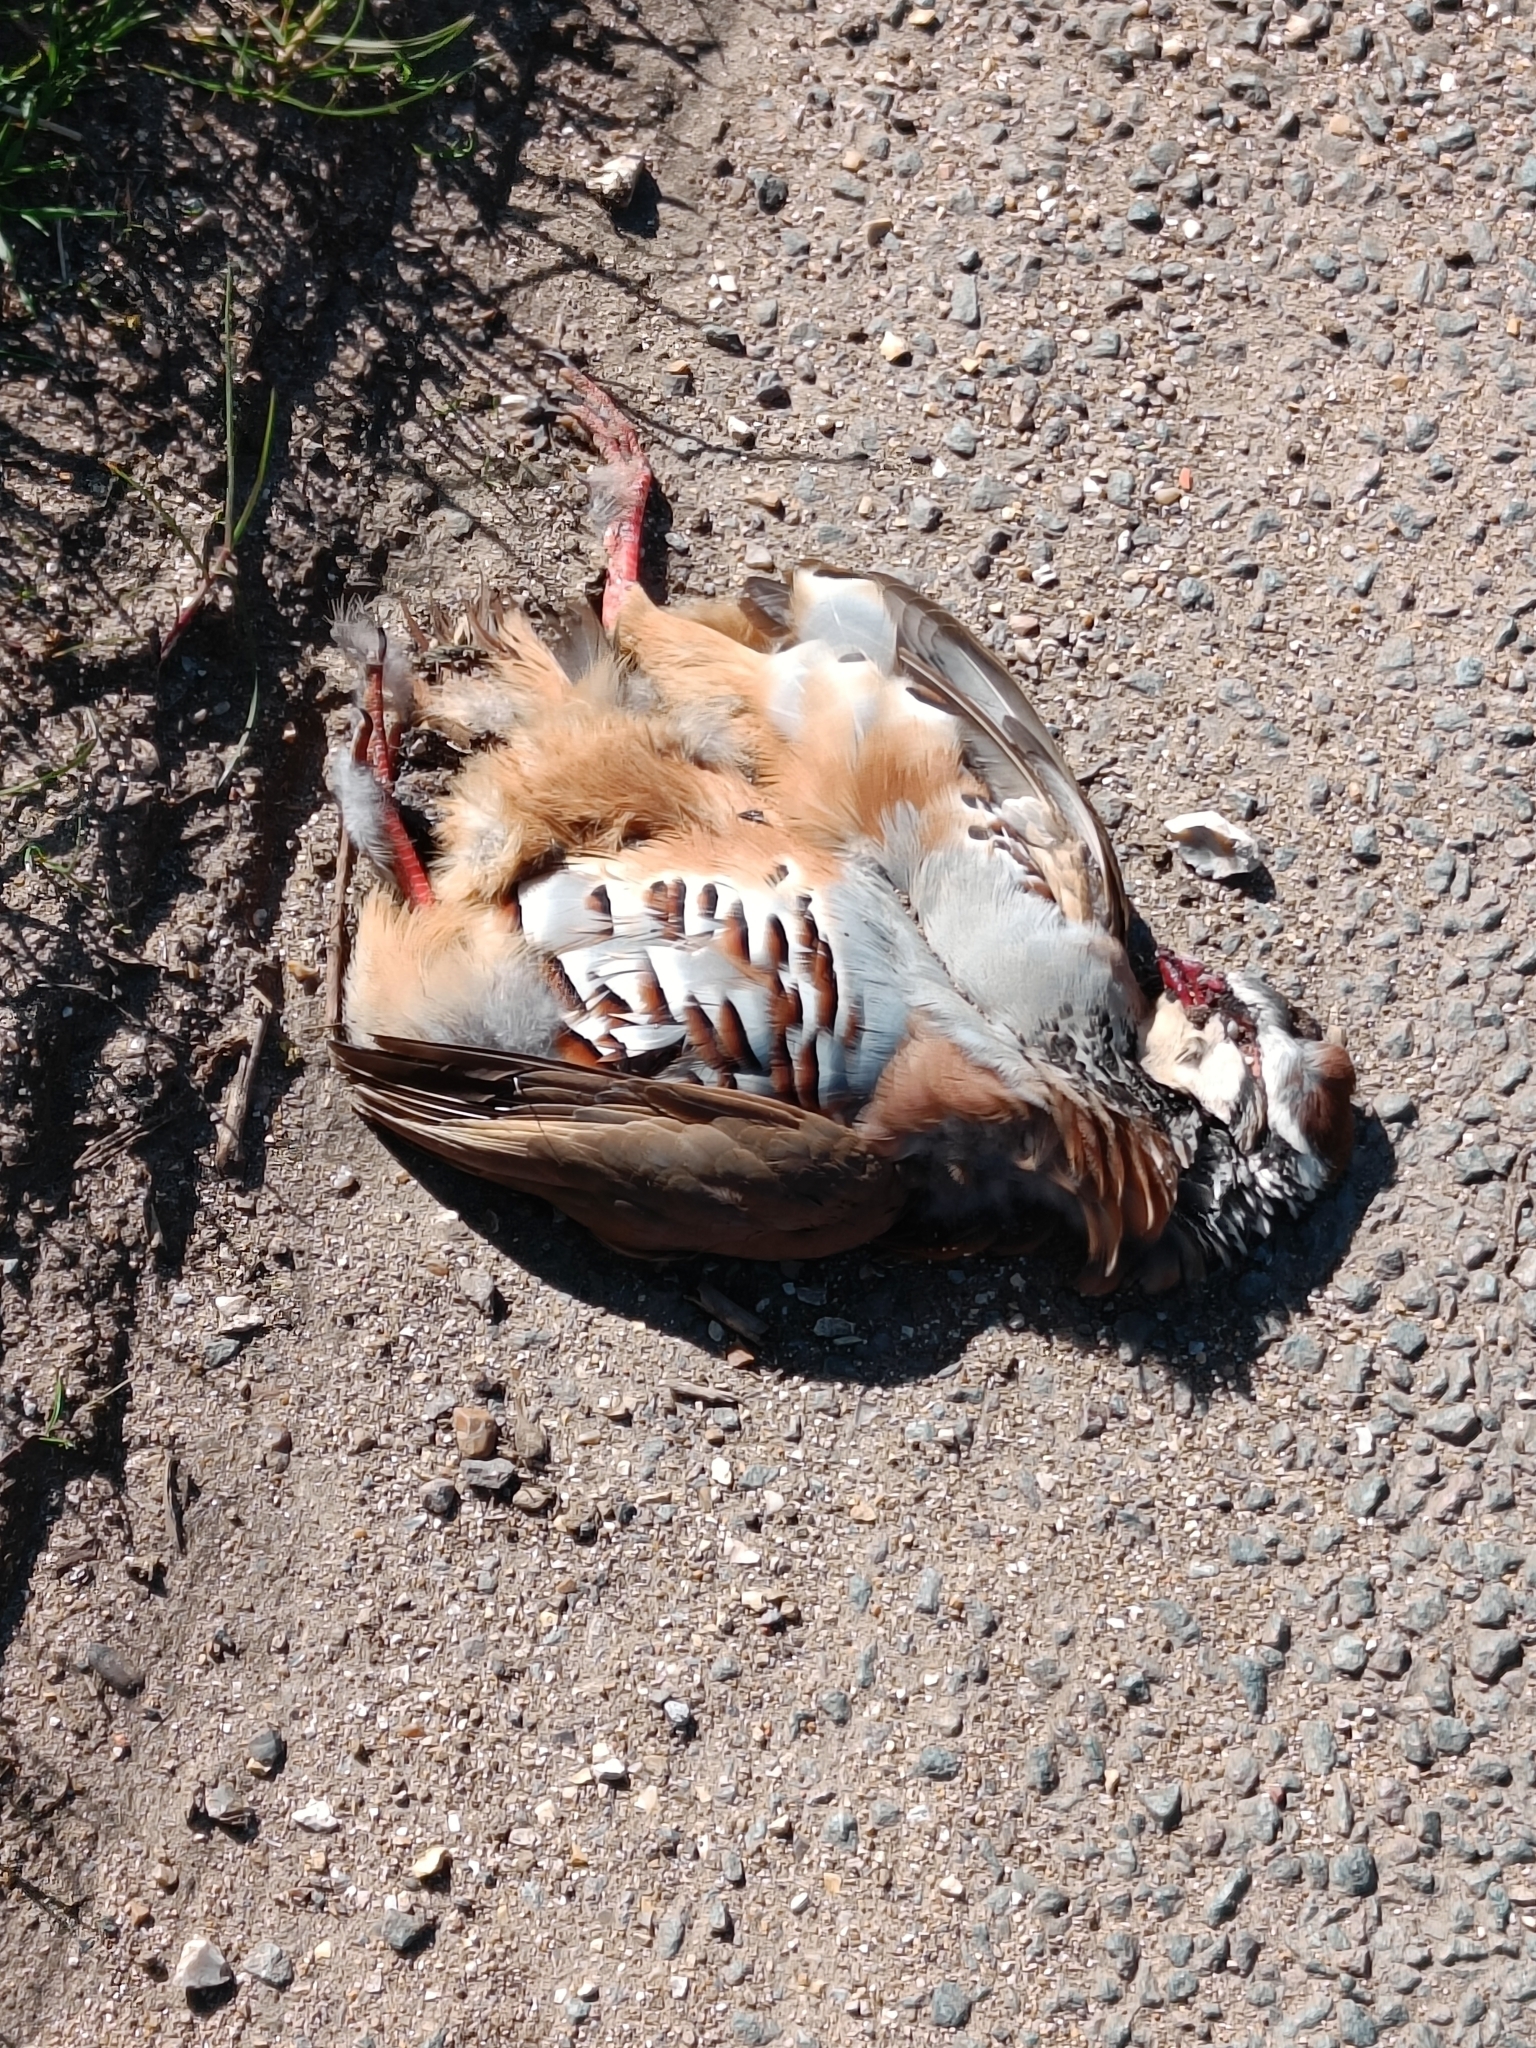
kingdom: Animalia
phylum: Chordata
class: Aves
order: Galliformes
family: Phasianidae
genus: Alectoris
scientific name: Alectoris rufa
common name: Red-legged partridge
